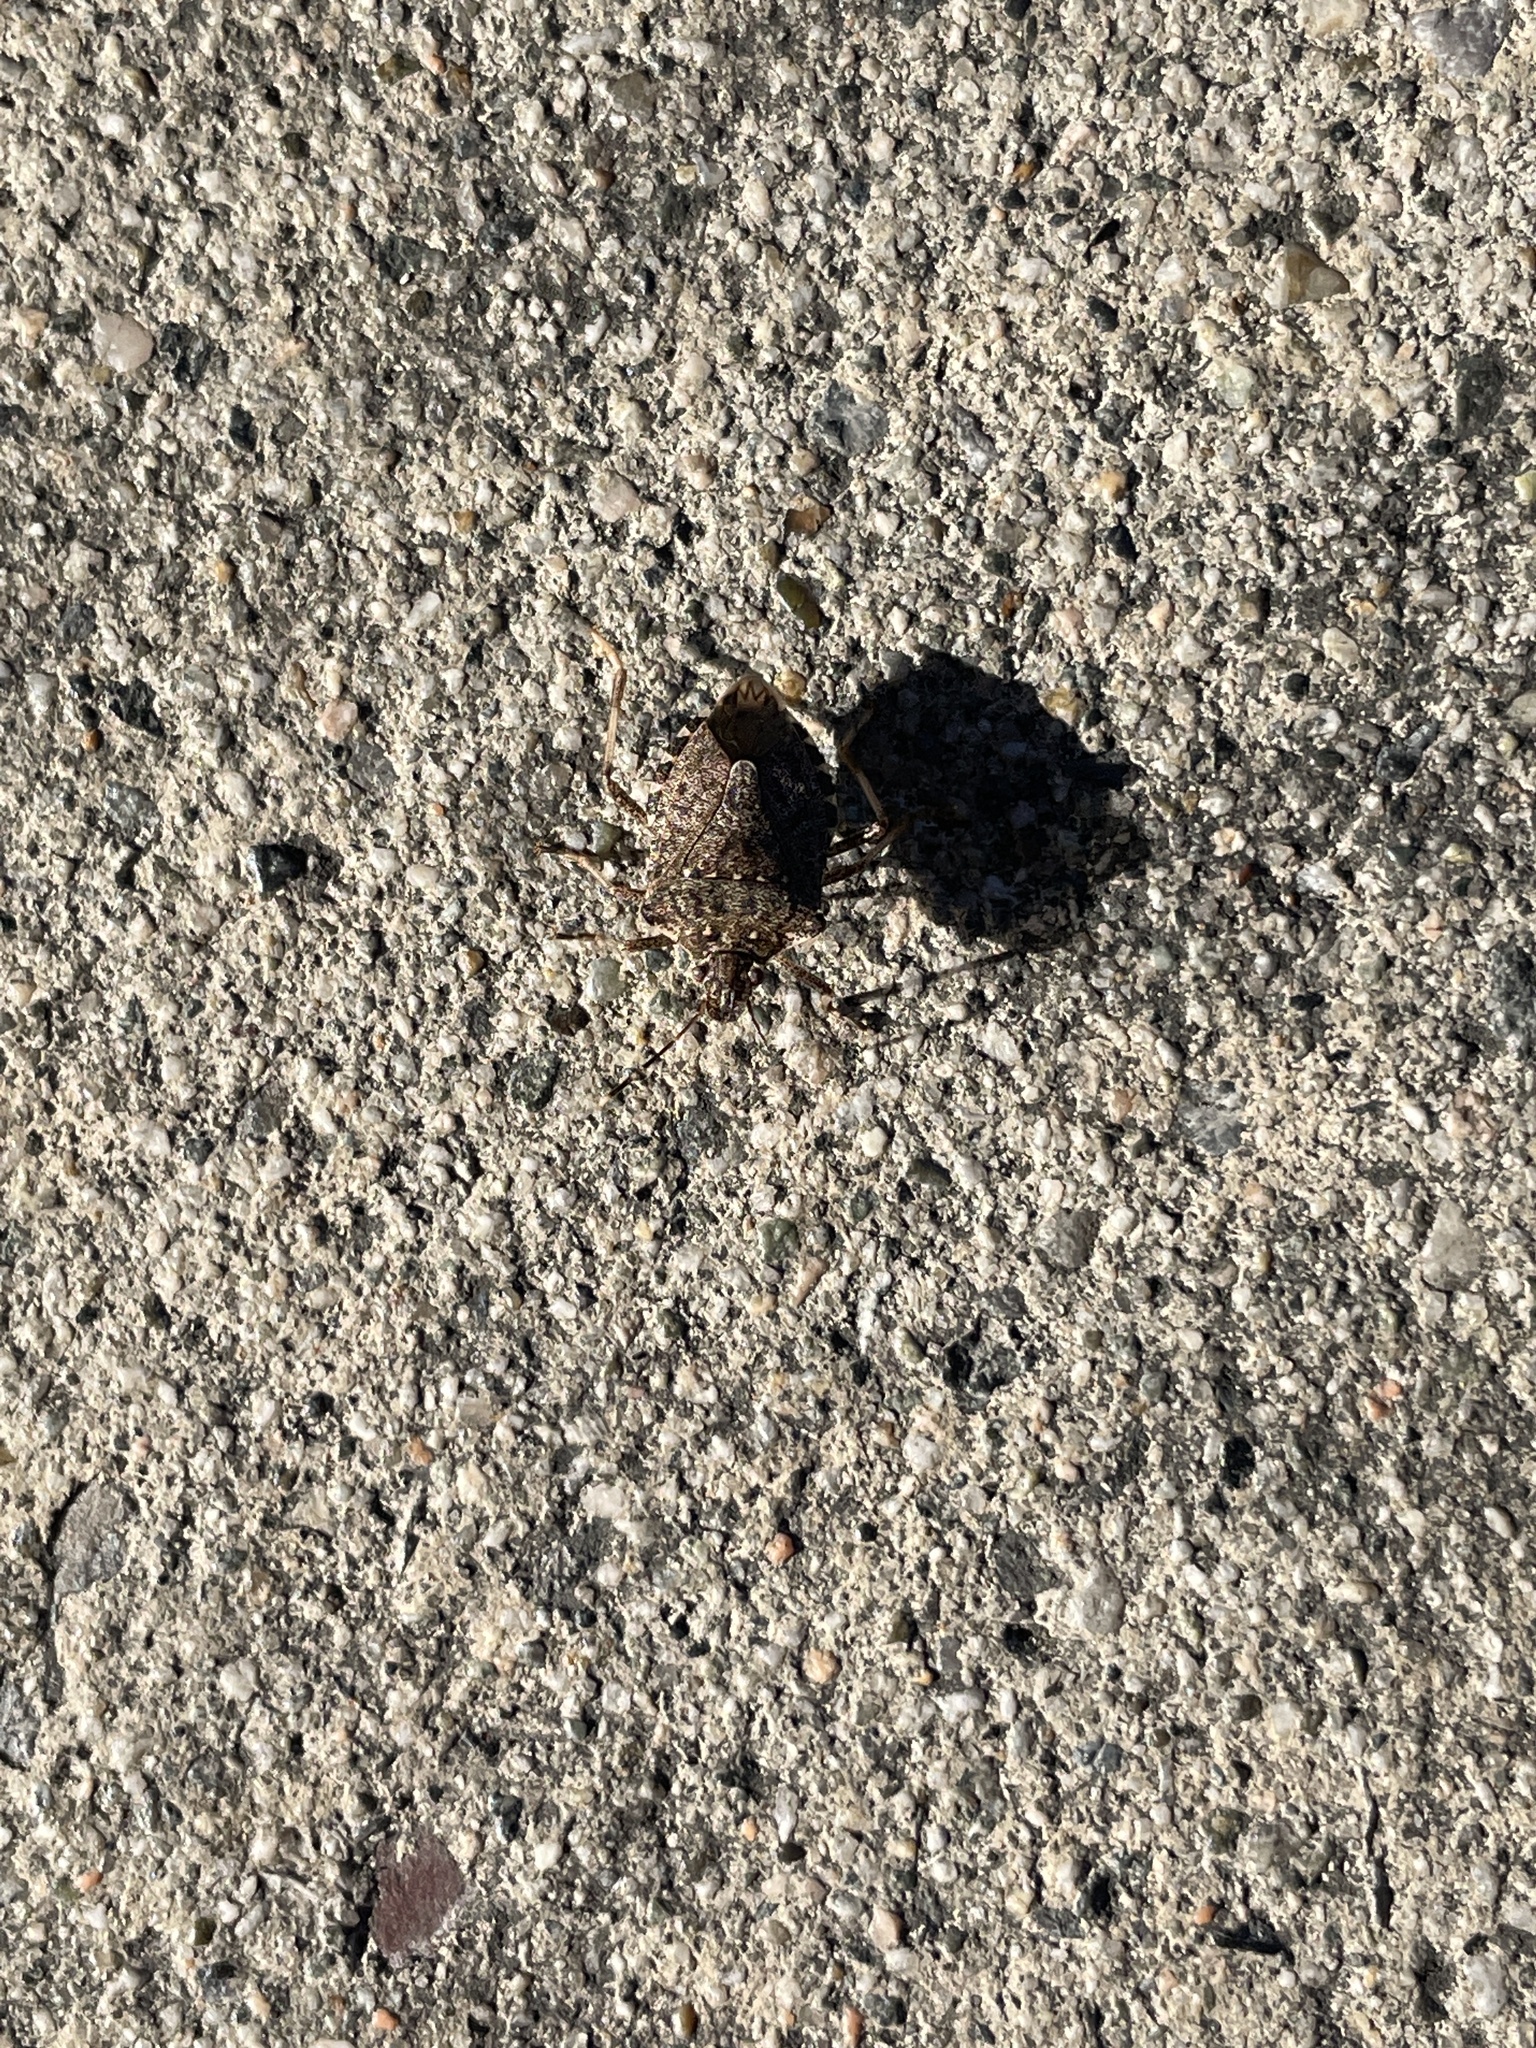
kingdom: Animalia
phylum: Arthropoda
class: Insecta
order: Hemiptera
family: Pentatomidae
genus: Halyomorpha
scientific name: Halyomorpha halys
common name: Brown marmorated stink bug
